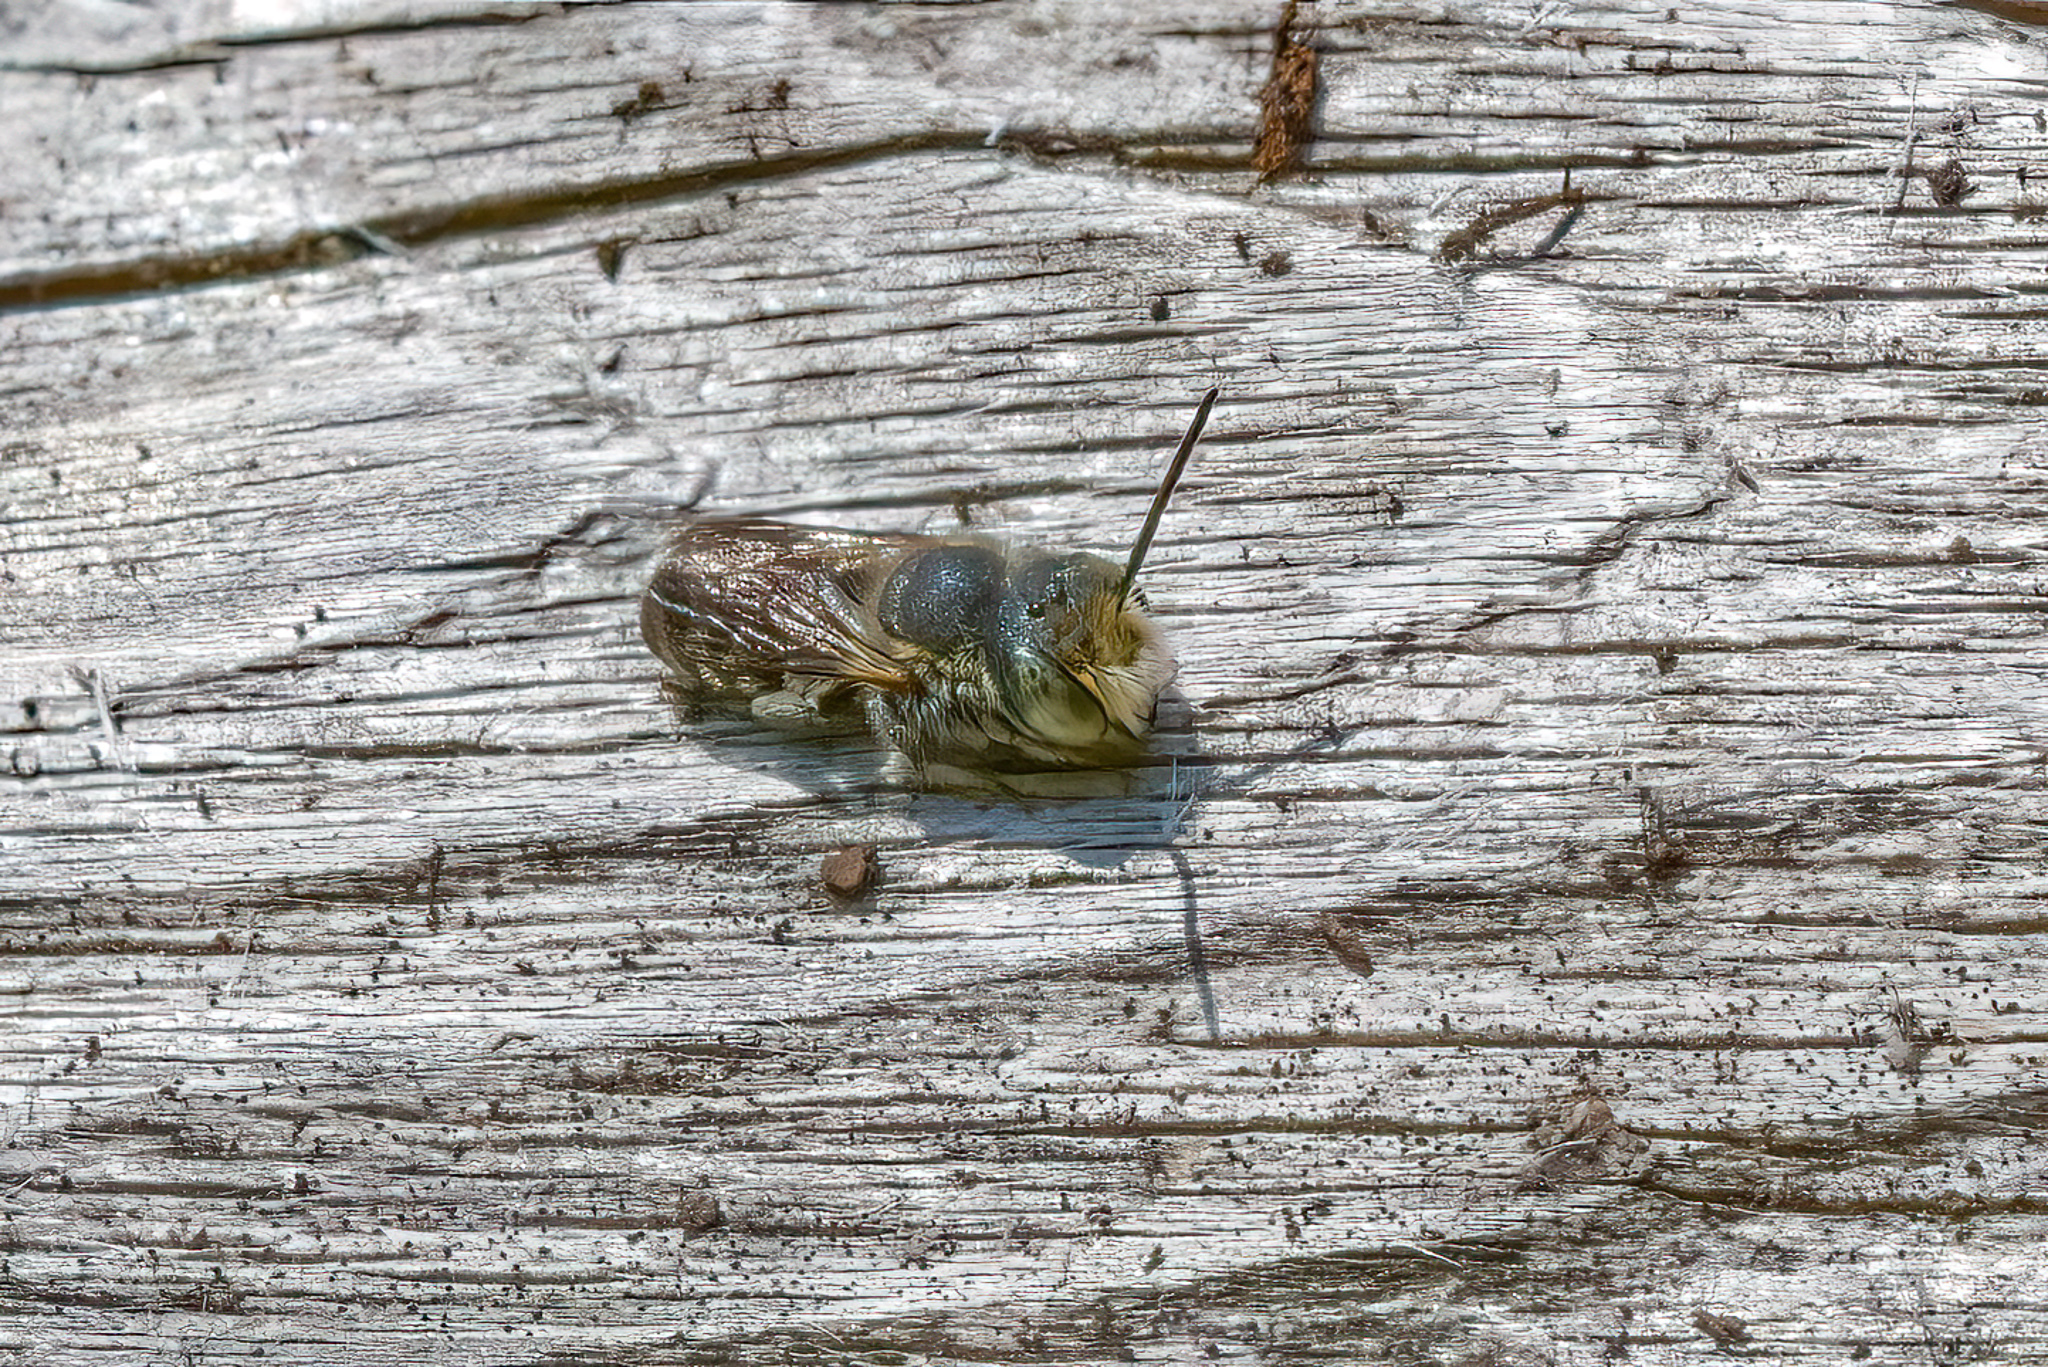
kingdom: Animalia
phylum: Arthropoda
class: Insecta
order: Hymenoptera
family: Megachilidae
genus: Megachile
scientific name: Megachile rotundata
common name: Alfalfa leafcutting bee
